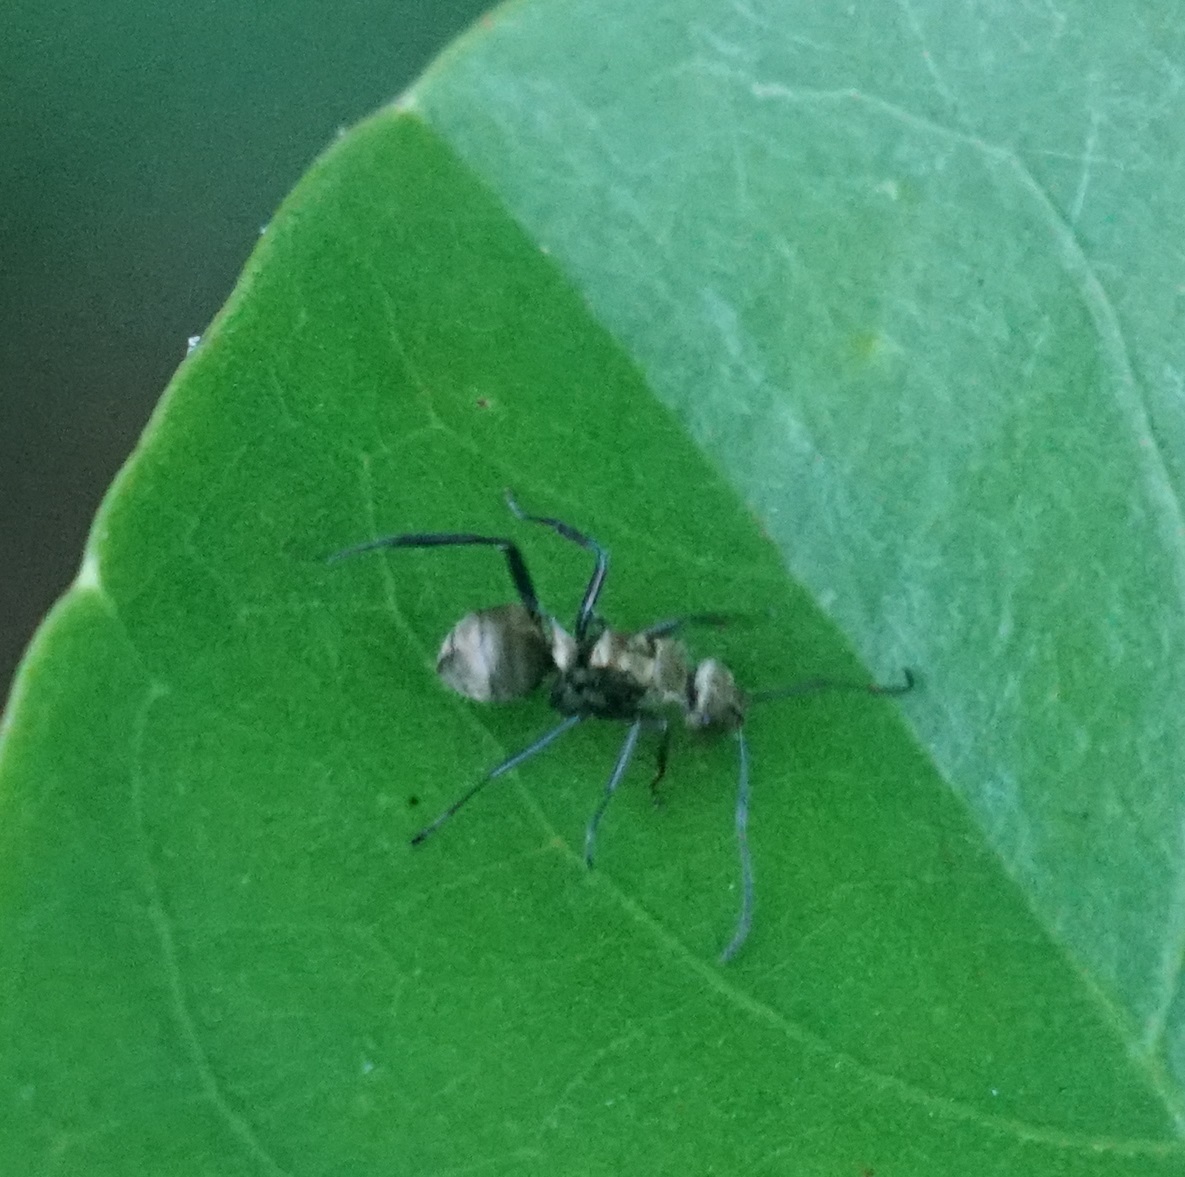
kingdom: Animalia
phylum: Arthropoda
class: Insecta
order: Hymenoptera
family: Formicidae
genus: Polyrhachis
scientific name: Polyrhachis cupreata
